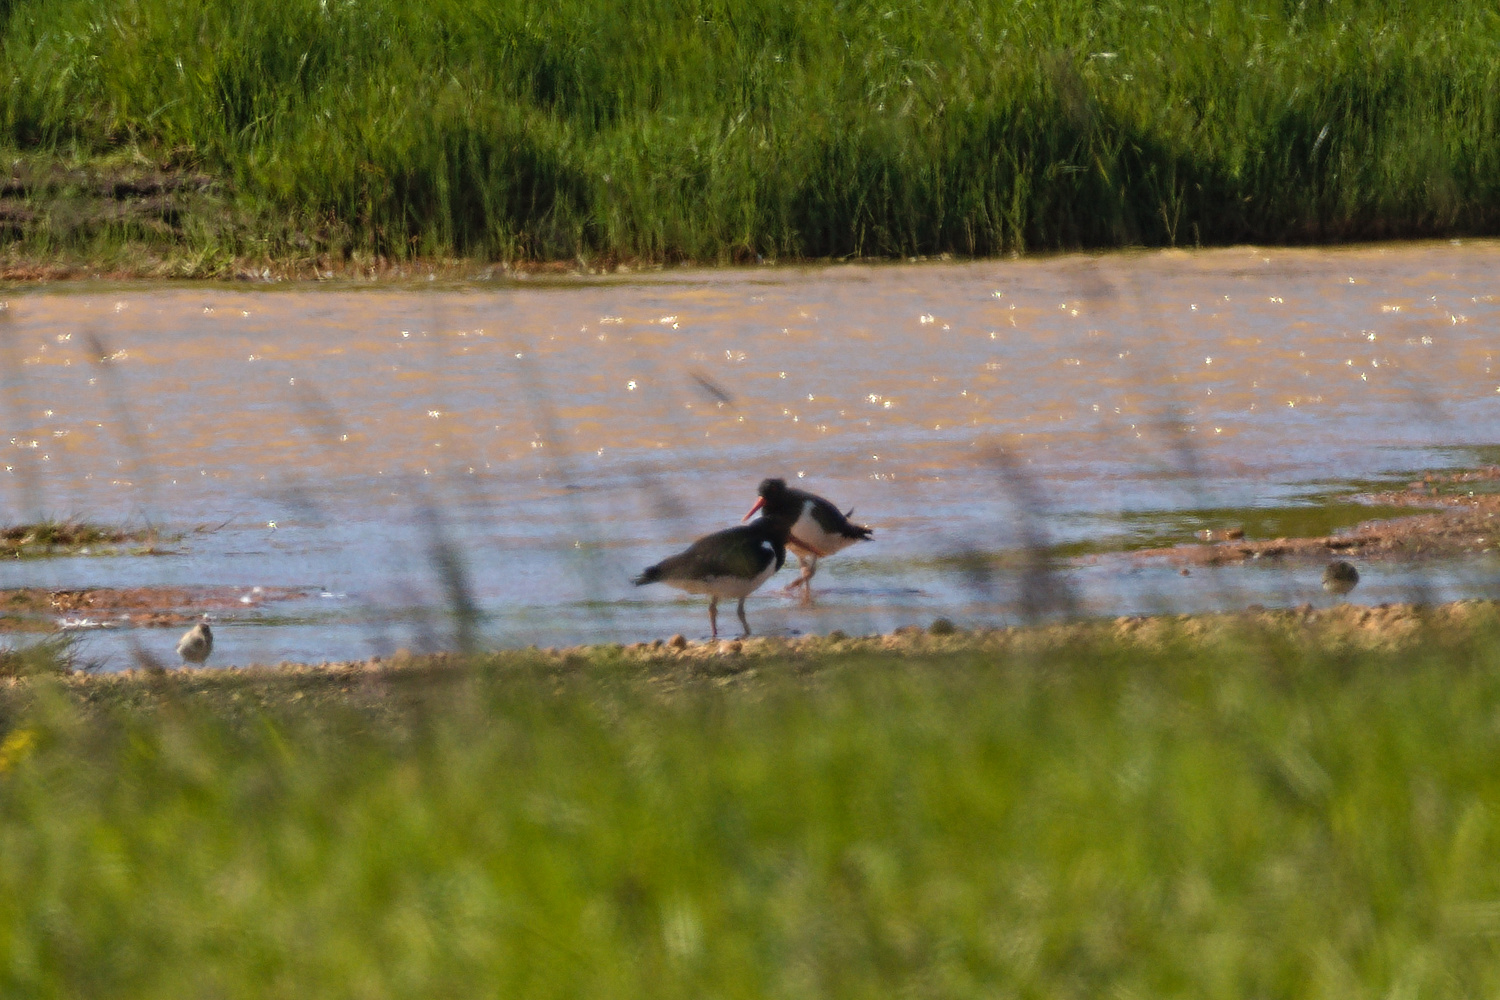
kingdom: Animalia
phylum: Chordata
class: Aves
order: Charadriiformes
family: Haematopodidae
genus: Haematopus
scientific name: Haematopus ostralegus
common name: Eurasian oystercatcher
